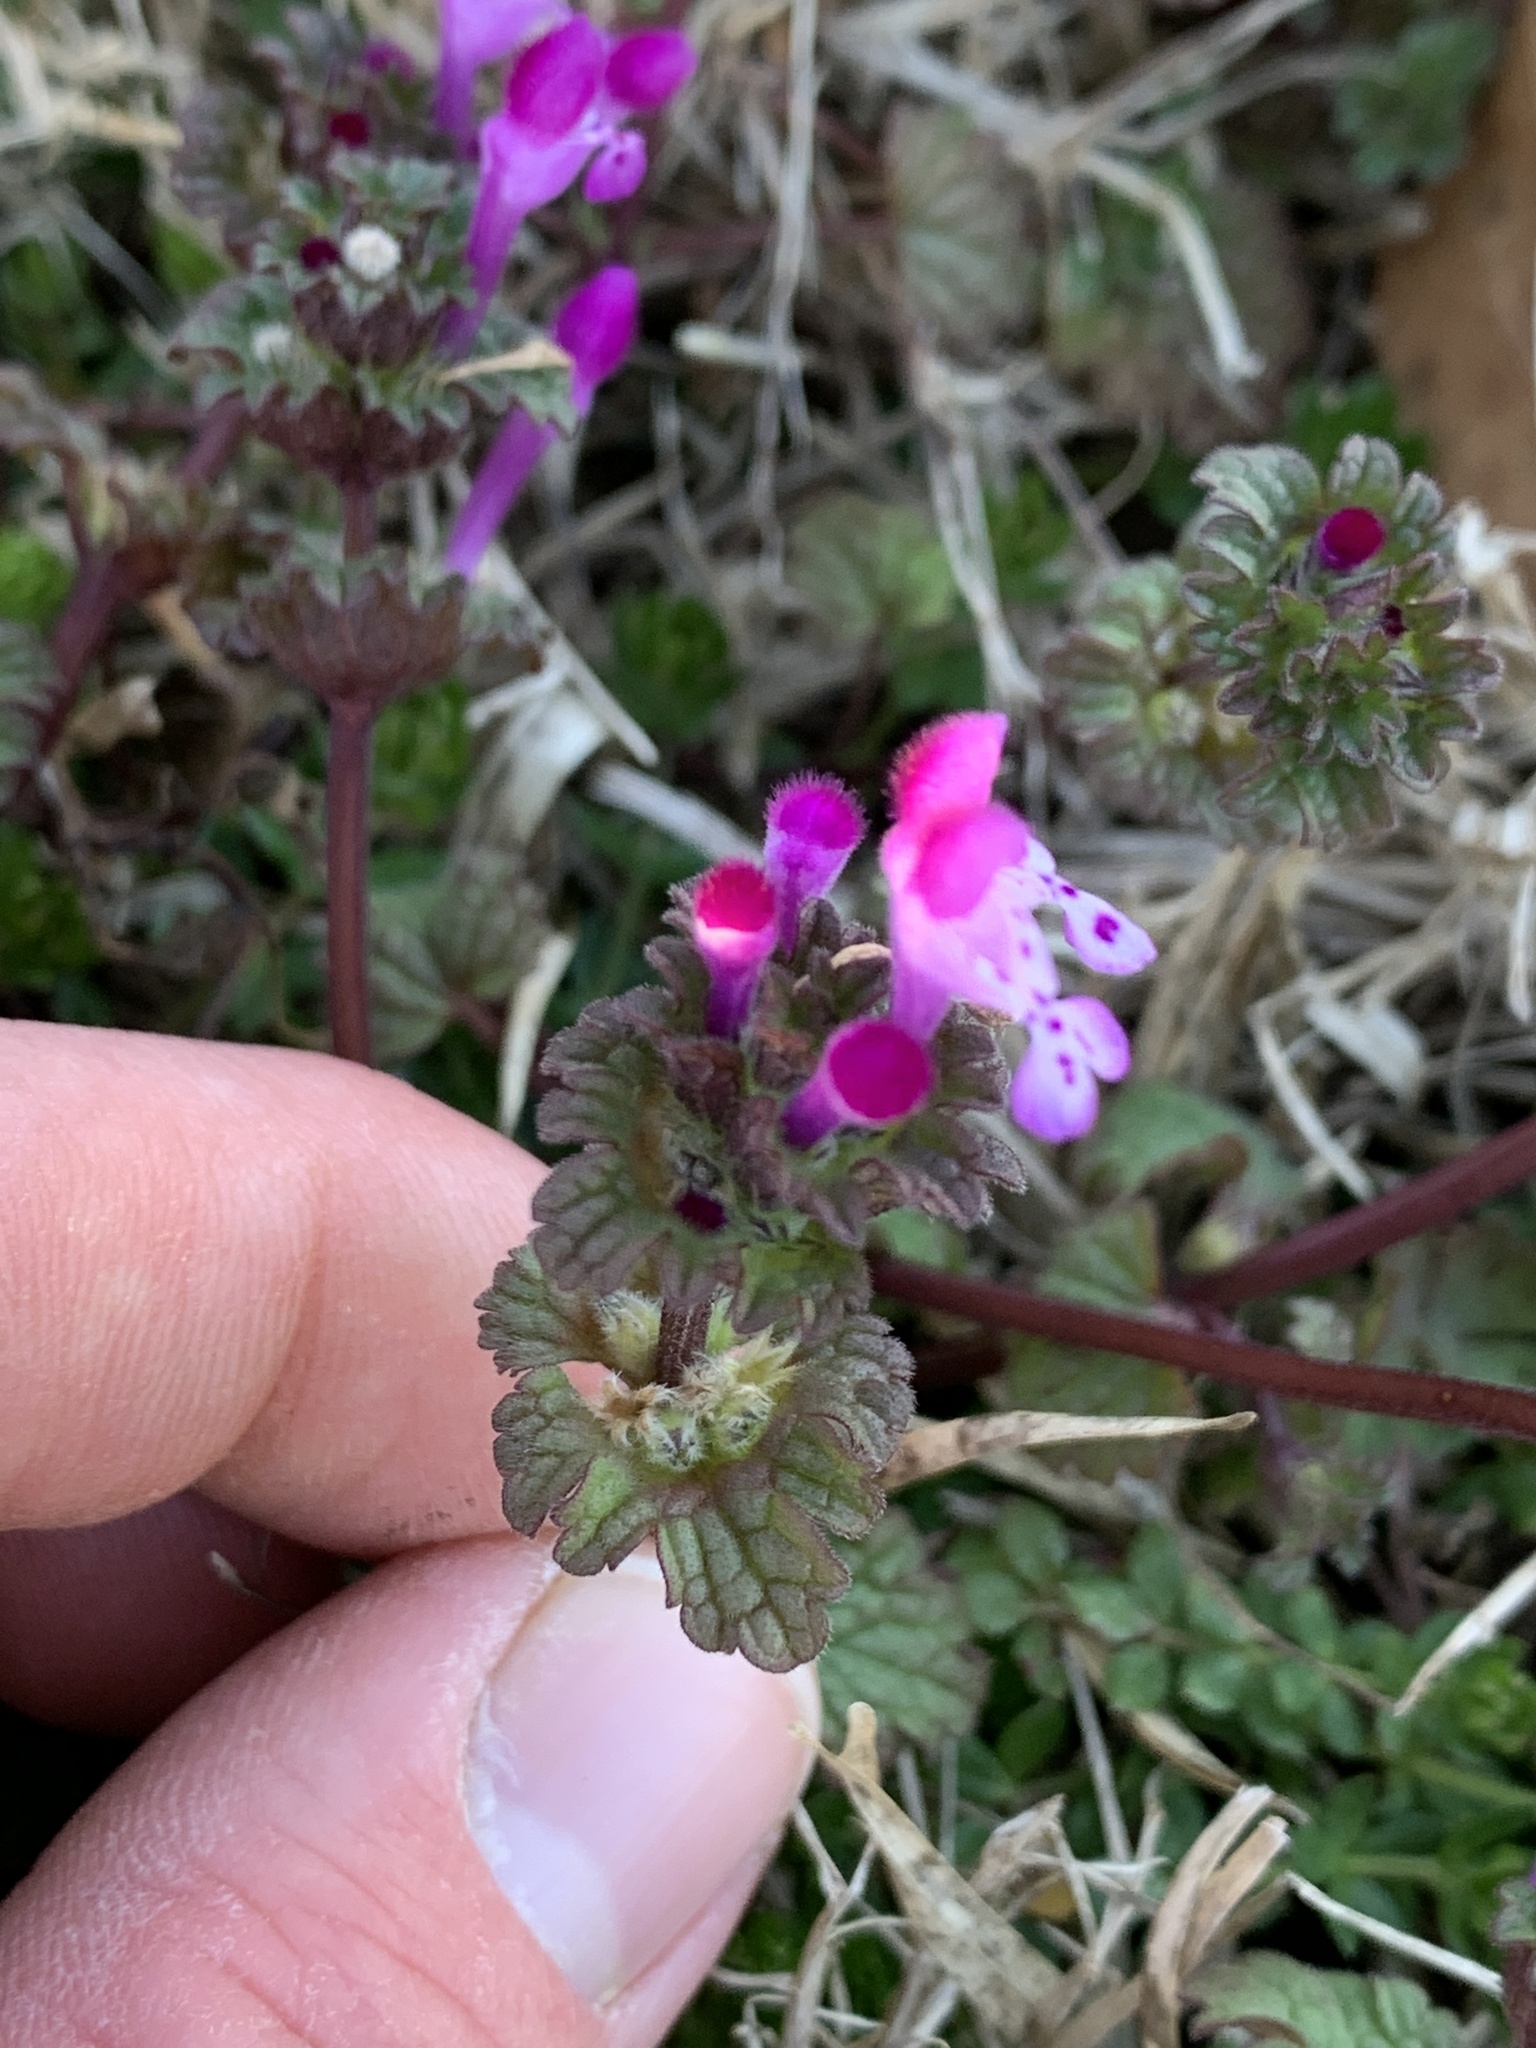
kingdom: Plantae
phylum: Tracheophyta
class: Magnoliopsida
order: Lamiales
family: Lamiaceae
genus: Lamium
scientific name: Lamium amplexicaule
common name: Henbit dead-nettle
